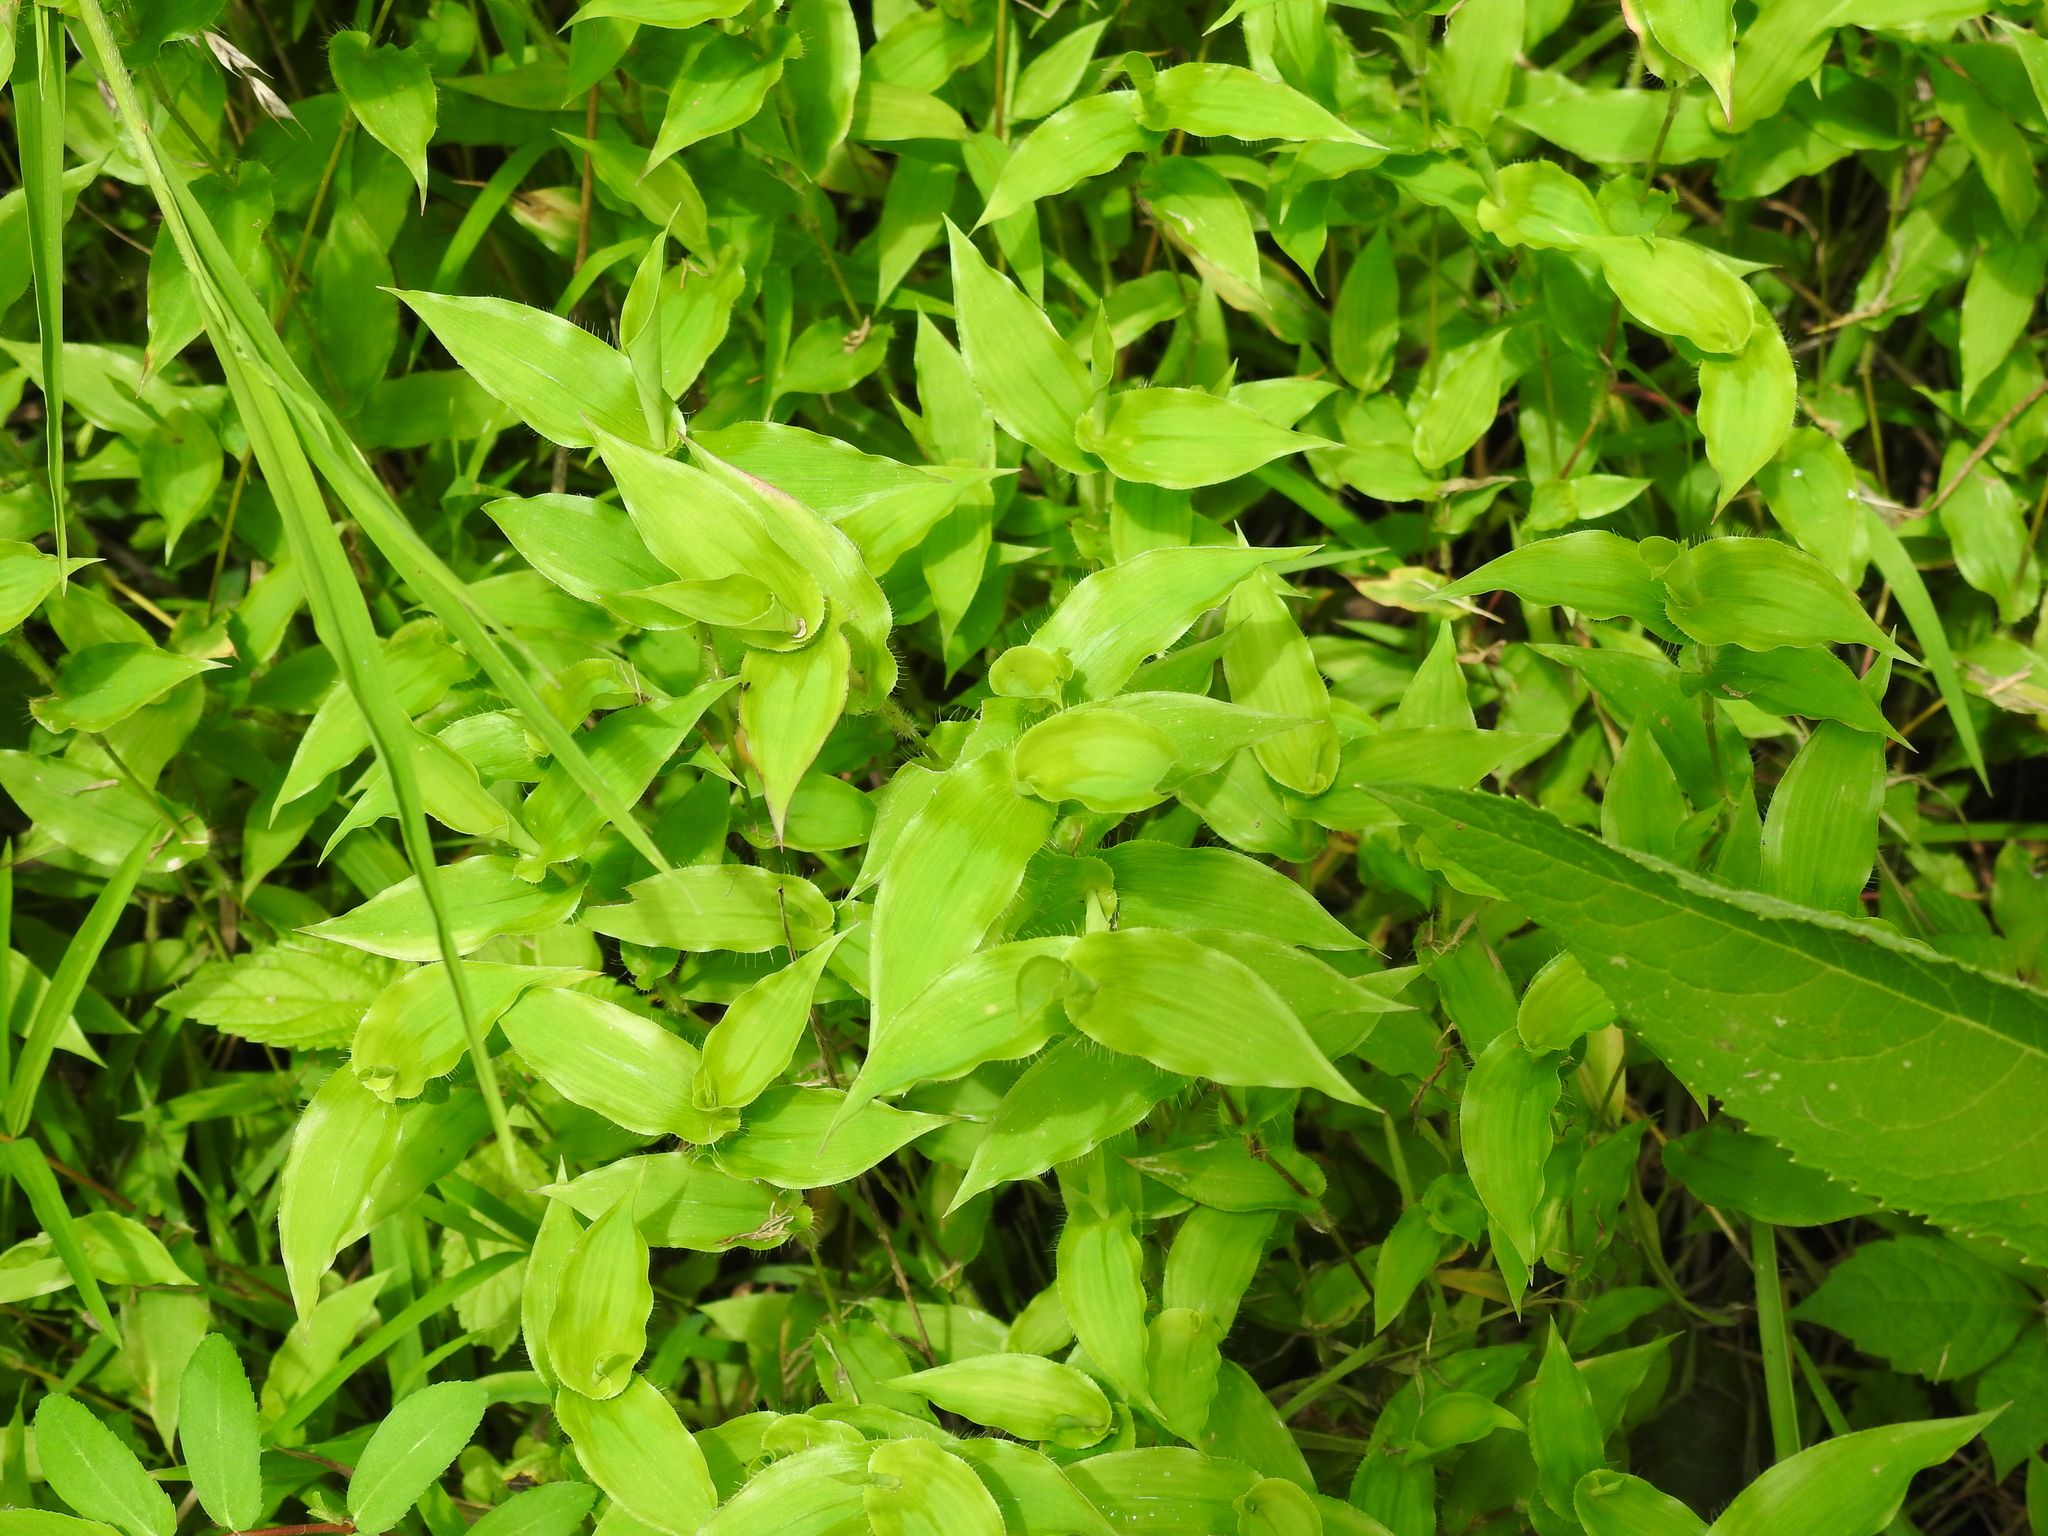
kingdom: Plantae
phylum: Tracheophyta
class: Liliopsida
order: Poales
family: Poaceae
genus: Arthraxon
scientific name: Arthraxon hispidus
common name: Small carpgrass
